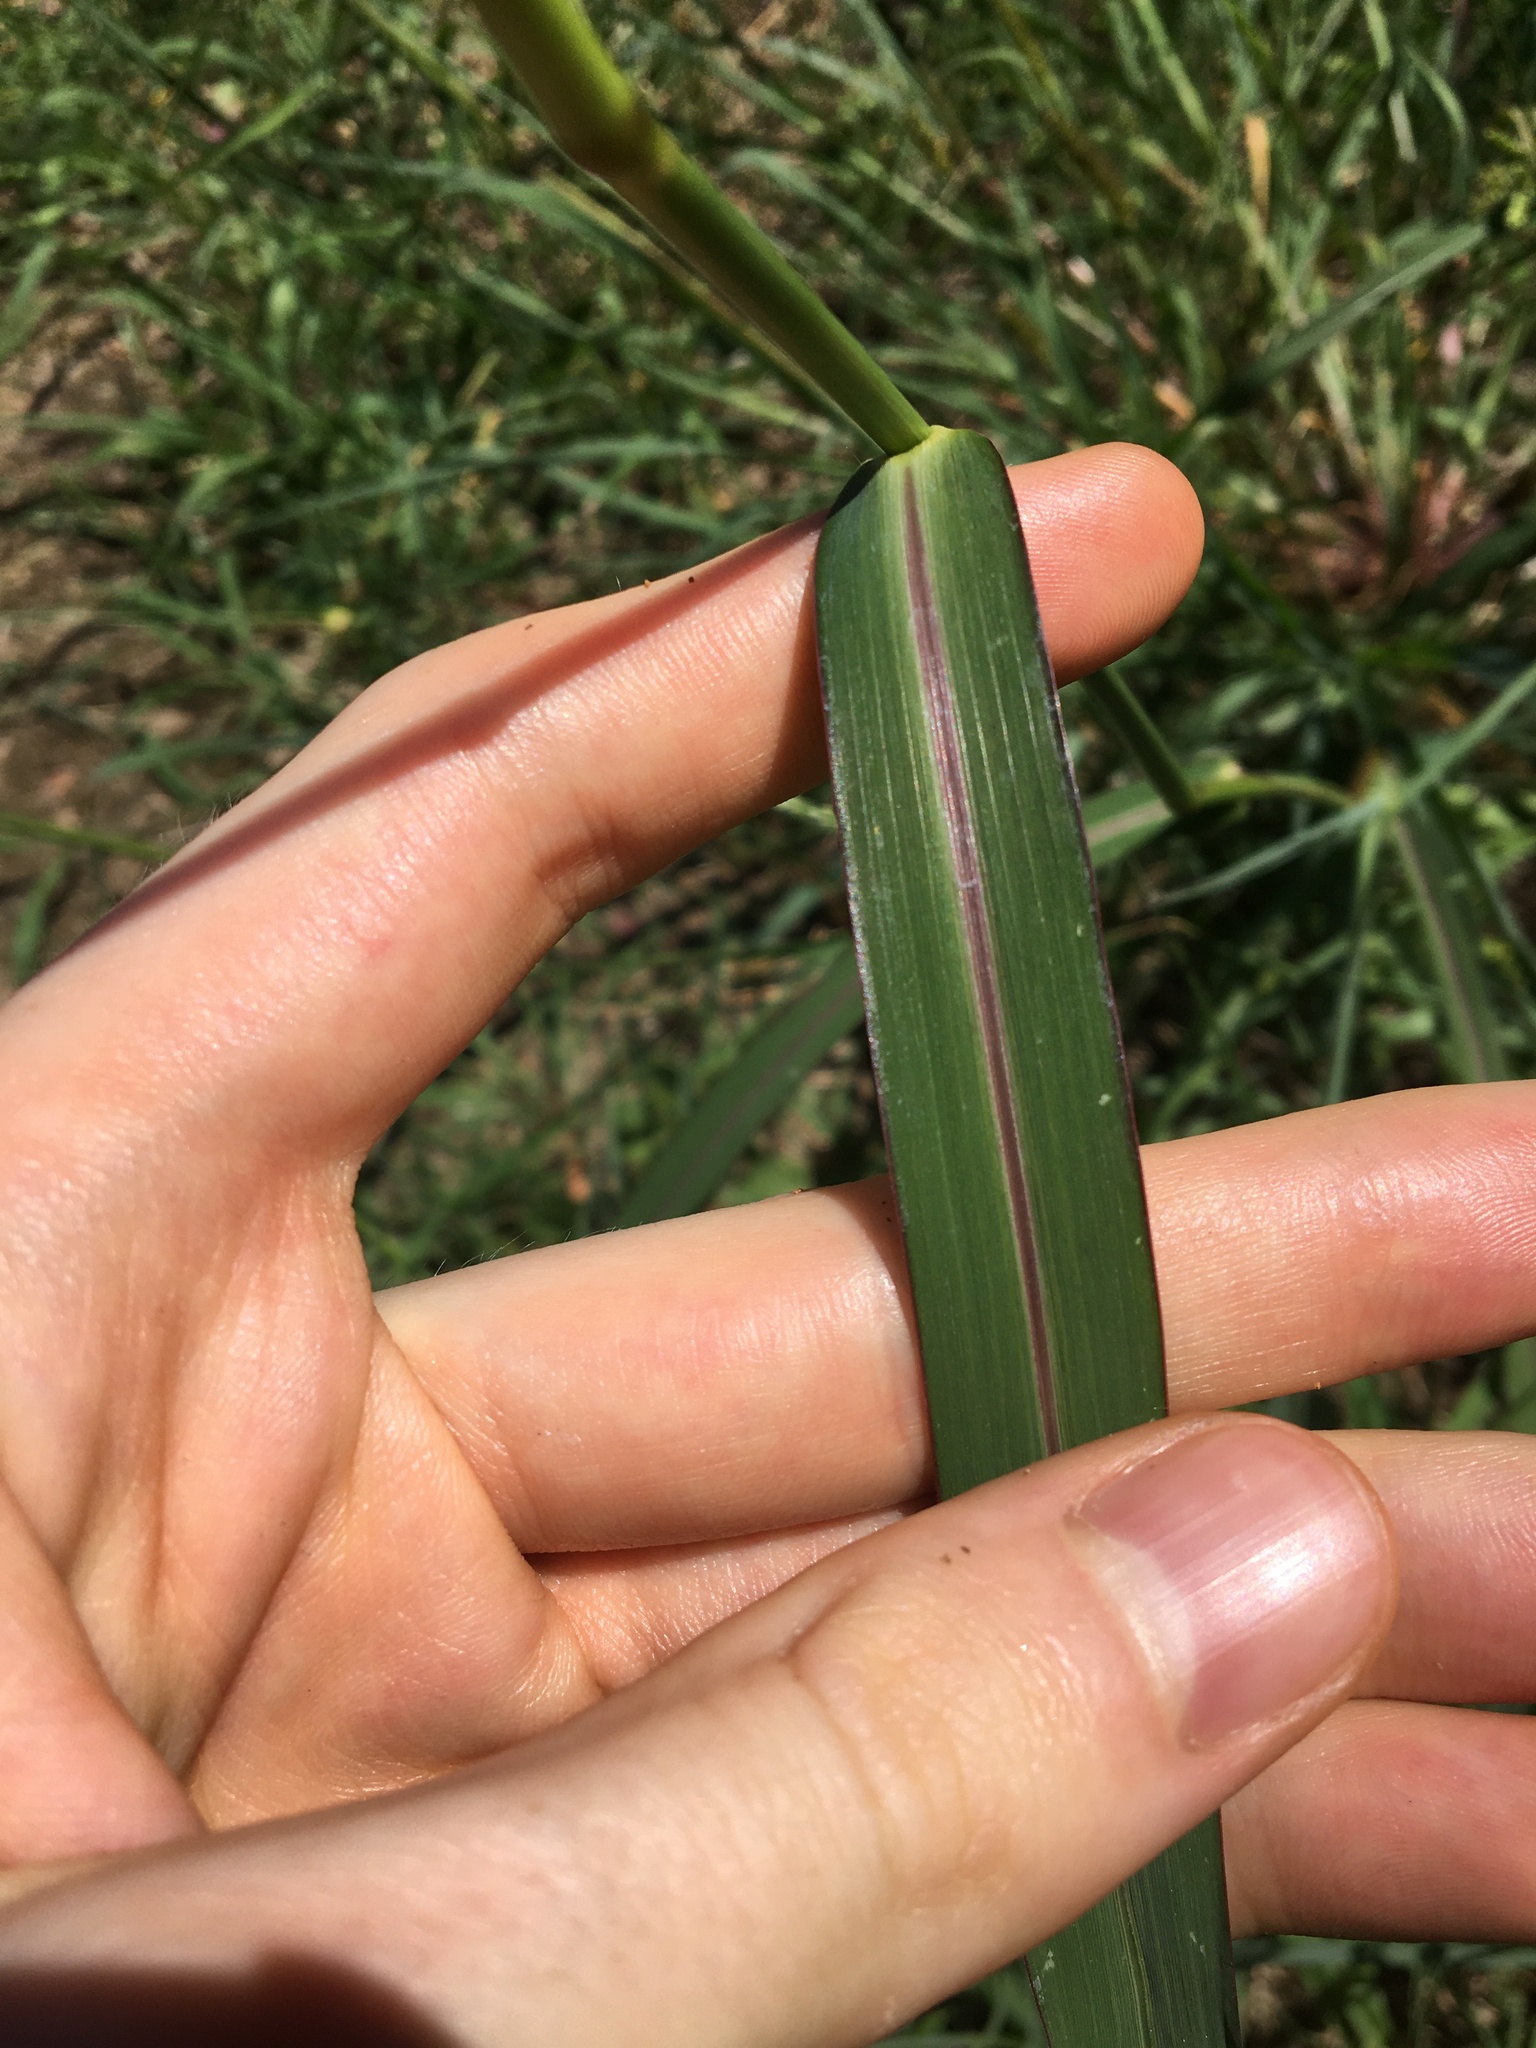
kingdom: Plantae
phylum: Tracheophyta
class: Liliopsida
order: Poales
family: Poaceae
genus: Echinochloa
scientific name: Echinochloa crus-galli
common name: Cockspur
